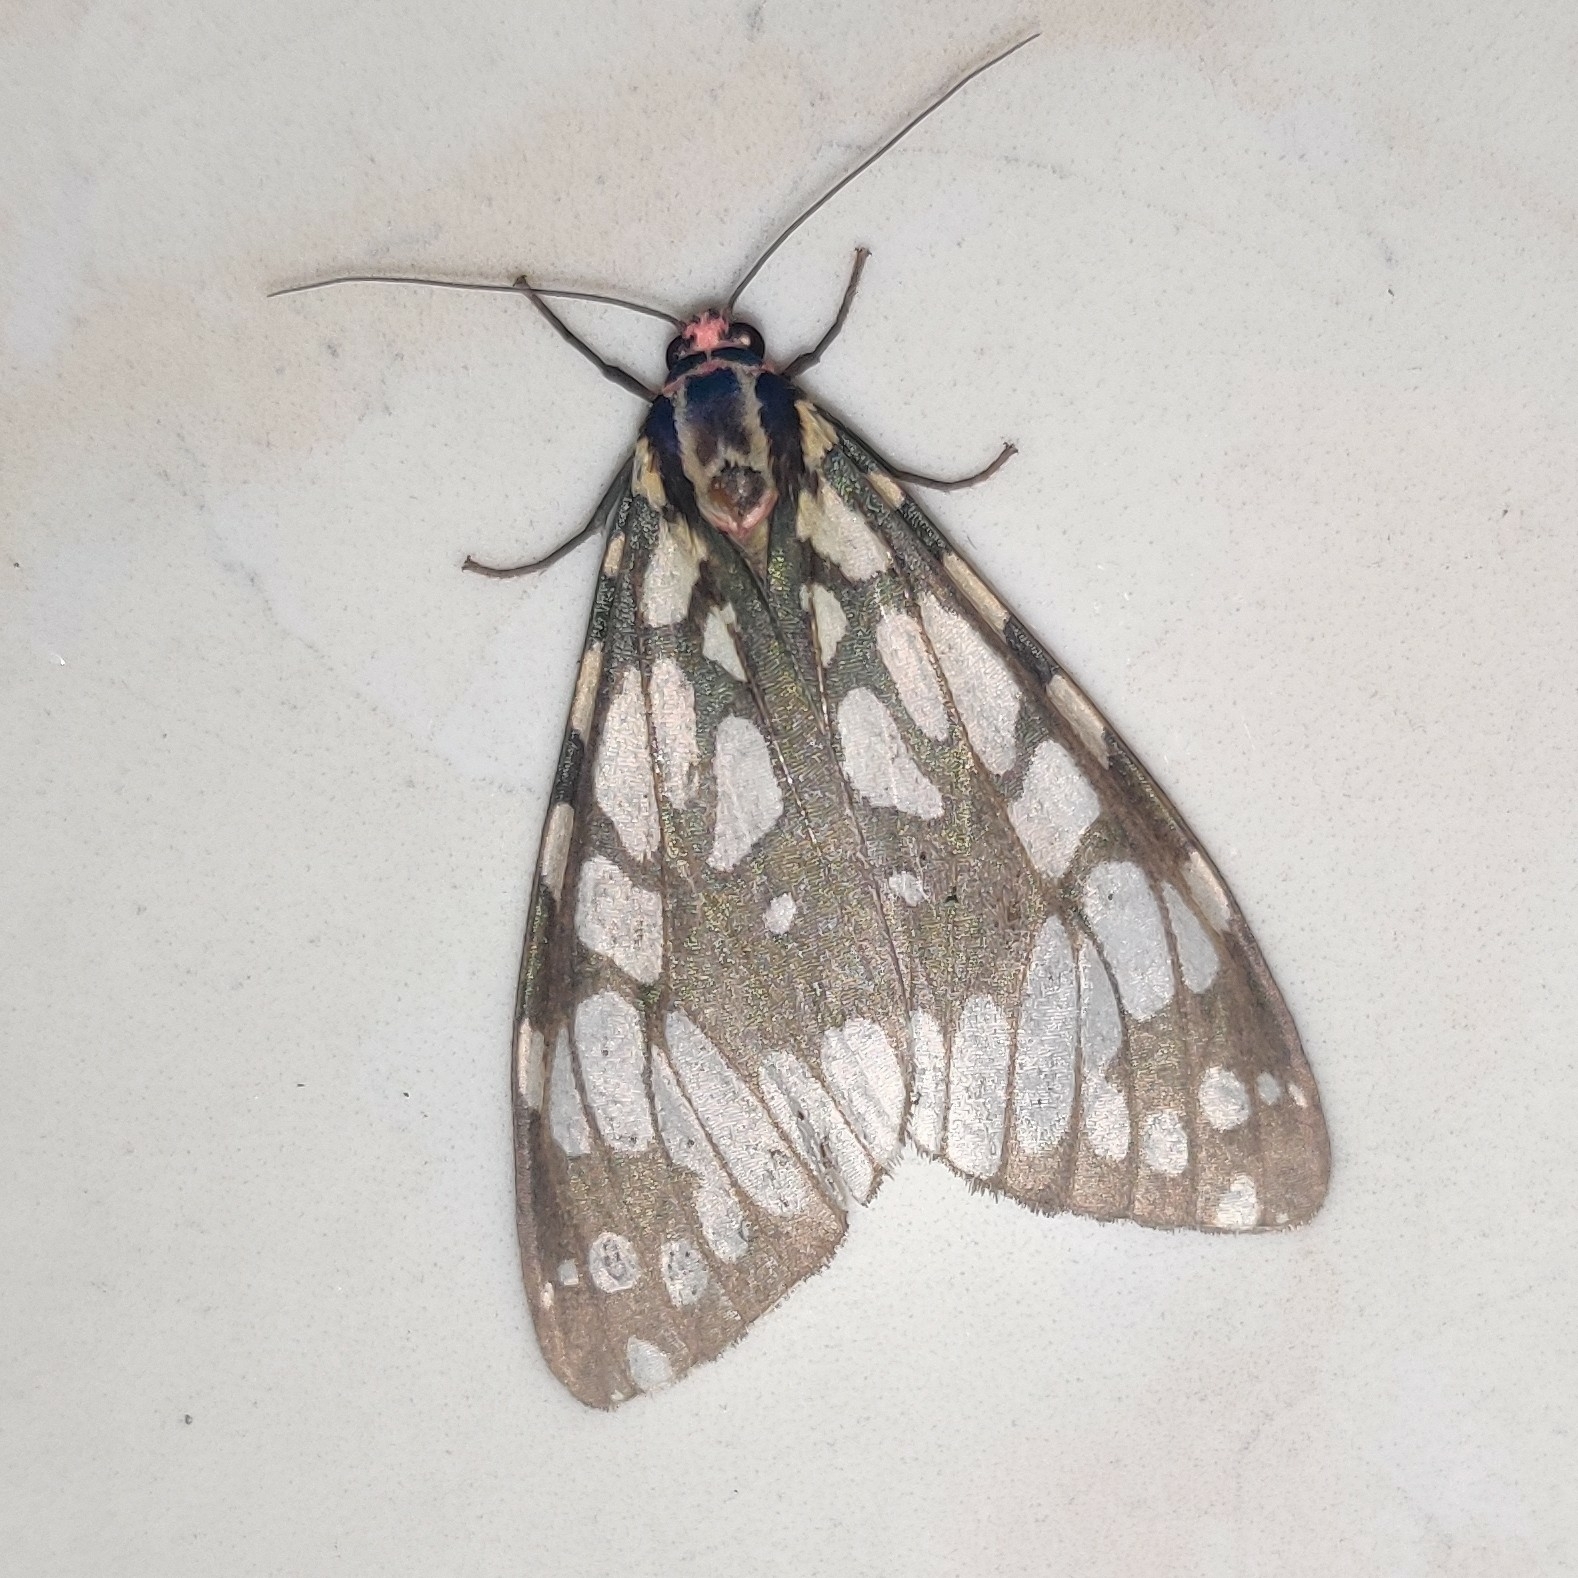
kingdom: Animalia
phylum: Arthropoda
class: Insecta
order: Lepidoptera
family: Erebidae
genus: Callindra
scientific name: Callindra nyctemerata
